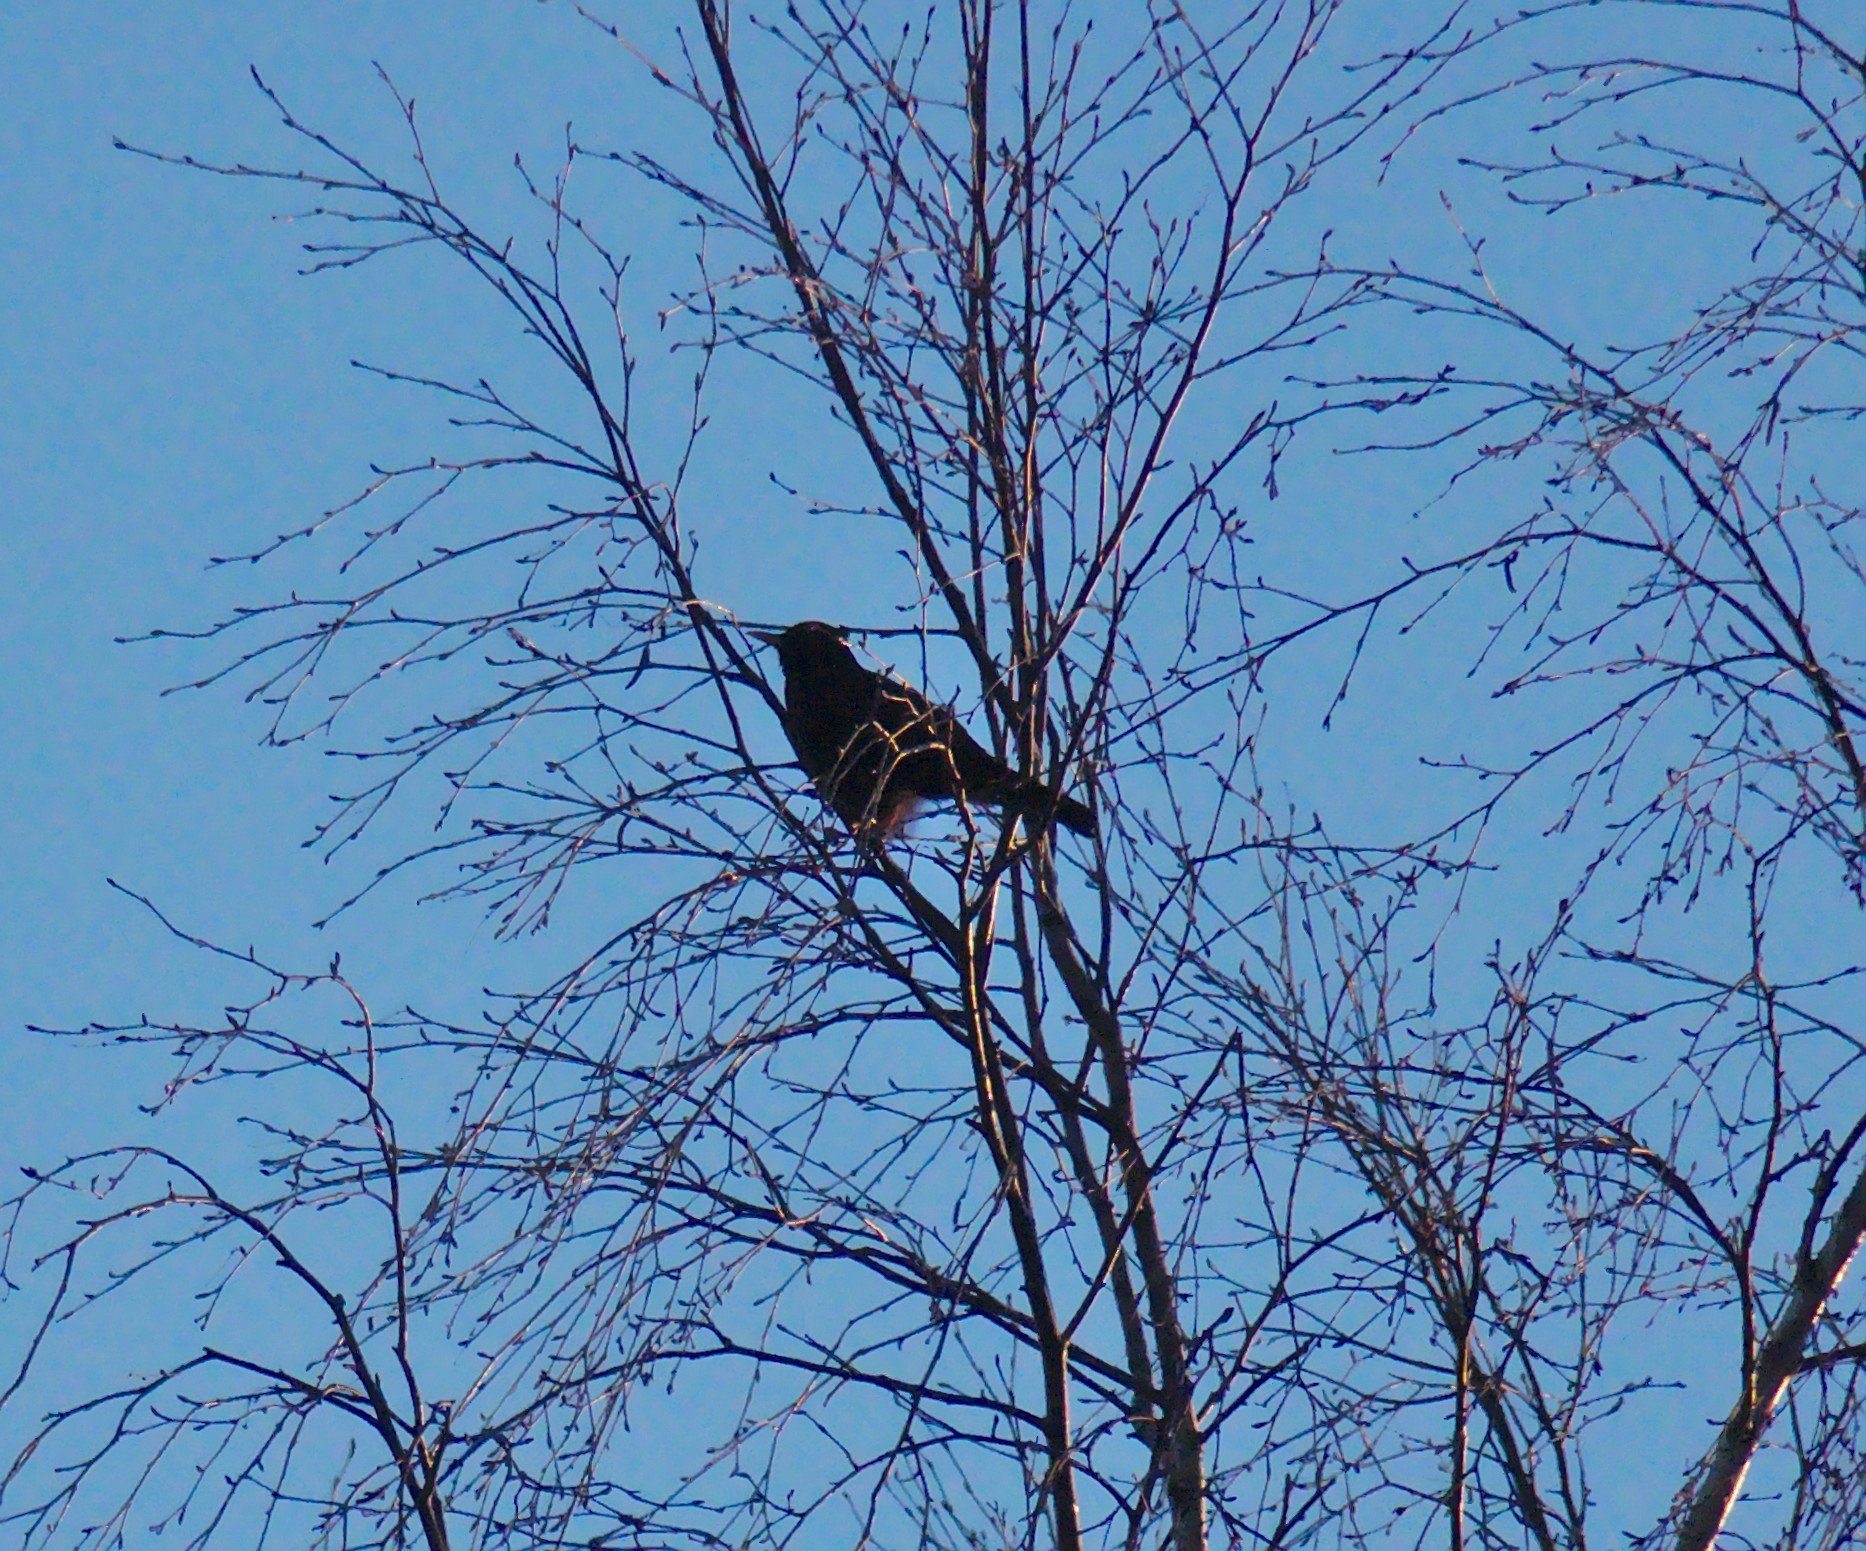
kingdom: Animalia
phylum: Chordata
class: Aves
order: Passeriformes
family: Turdidae
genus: Turdus
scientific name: Turdus merula
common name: Common blackbird
